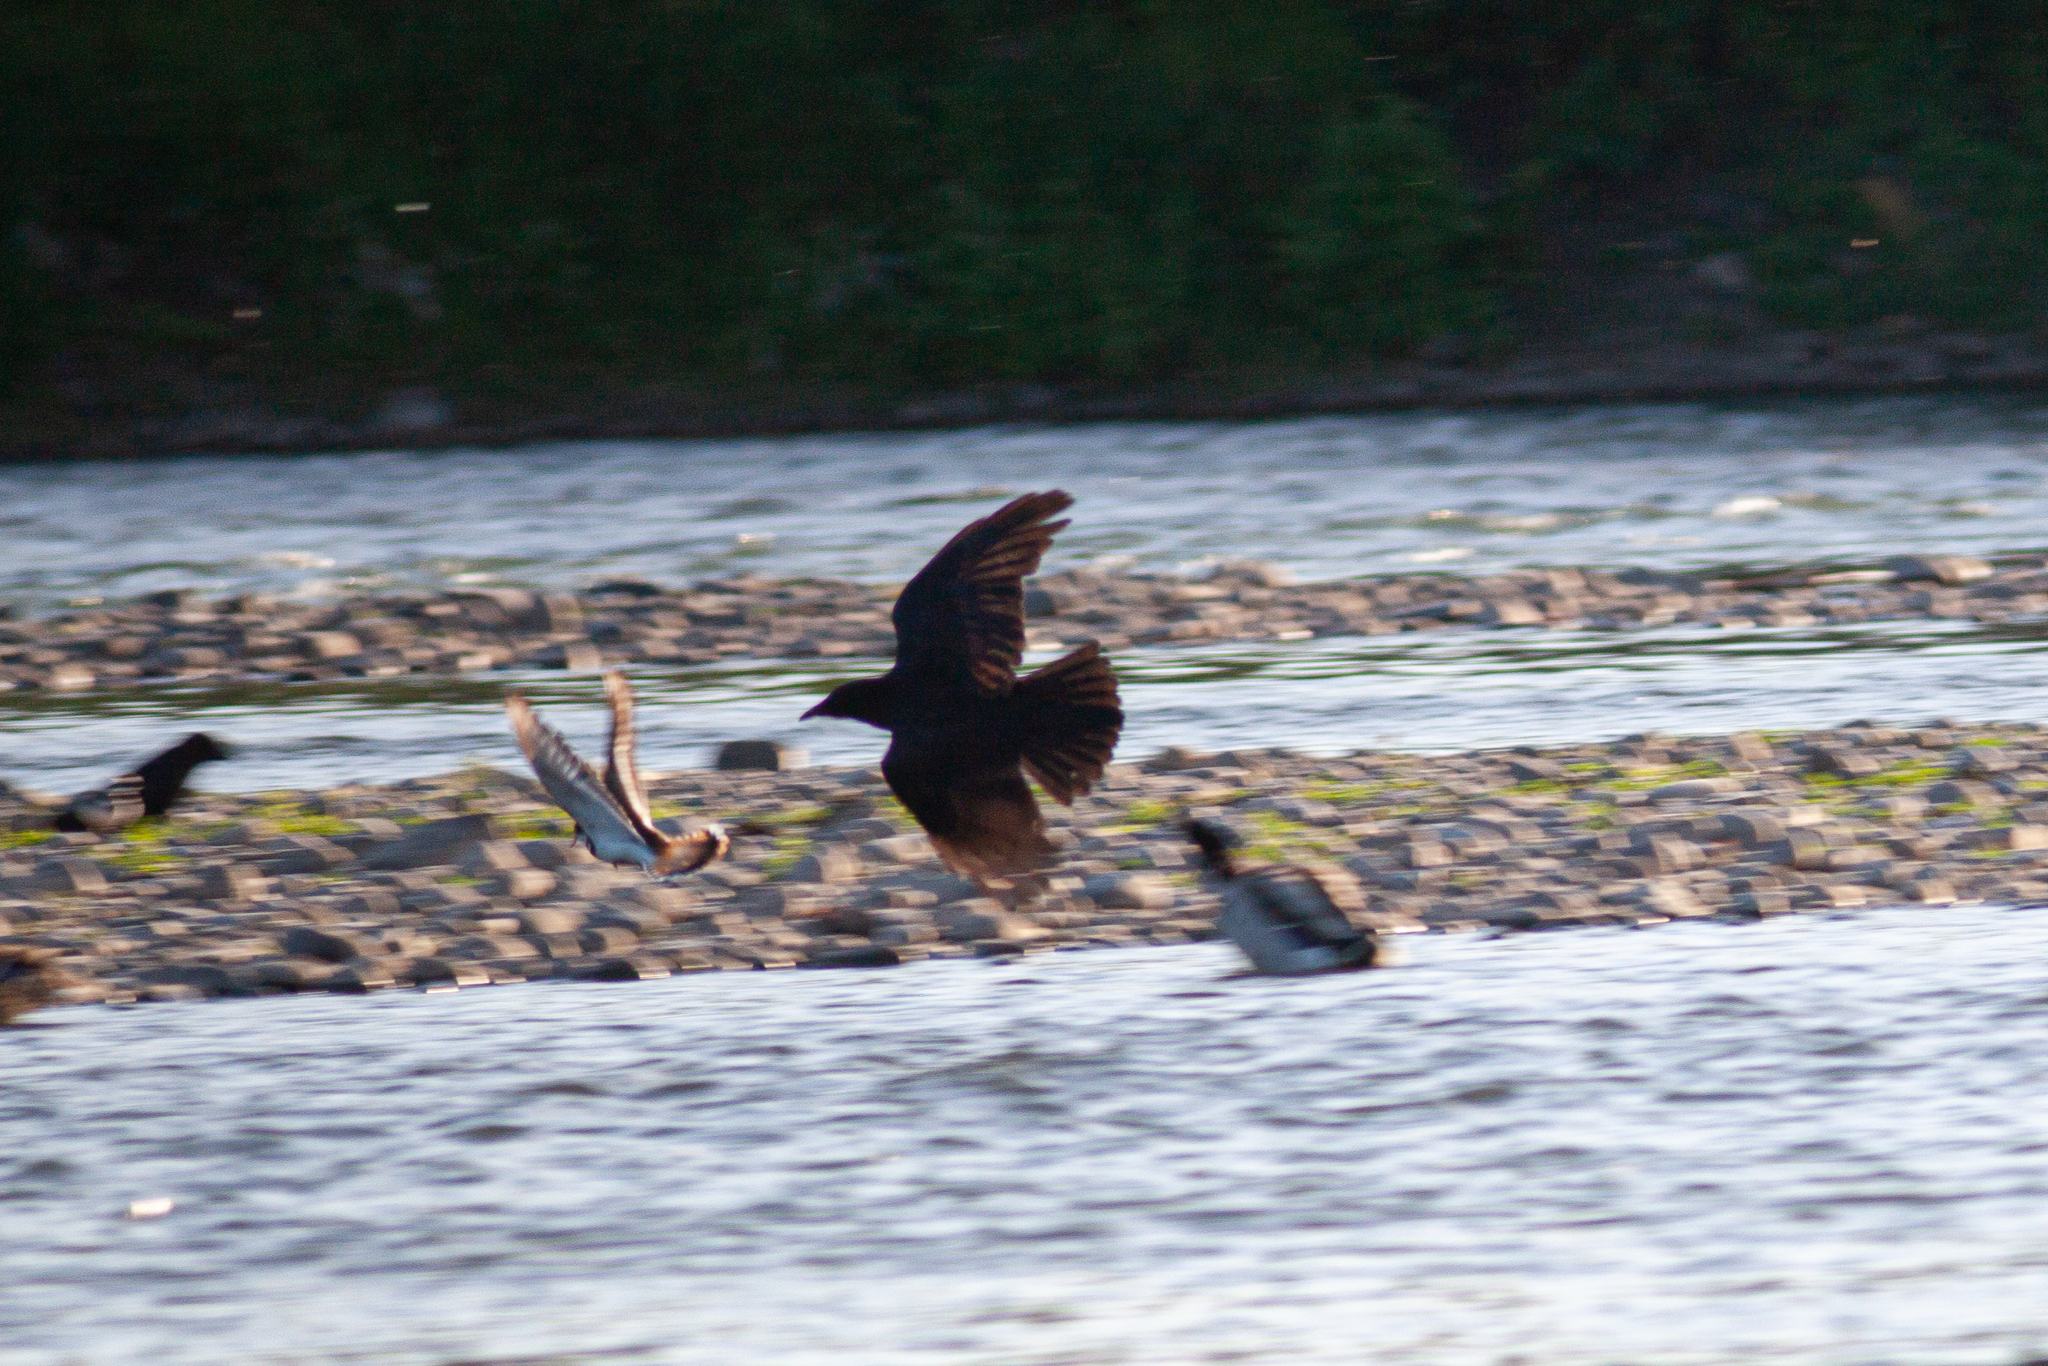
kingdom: Animalia
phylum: Chordata
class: Aves
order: Passeriformes
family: Corvidae
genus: Corvus
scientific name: Corvus brachyrhynchos
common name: American crow
